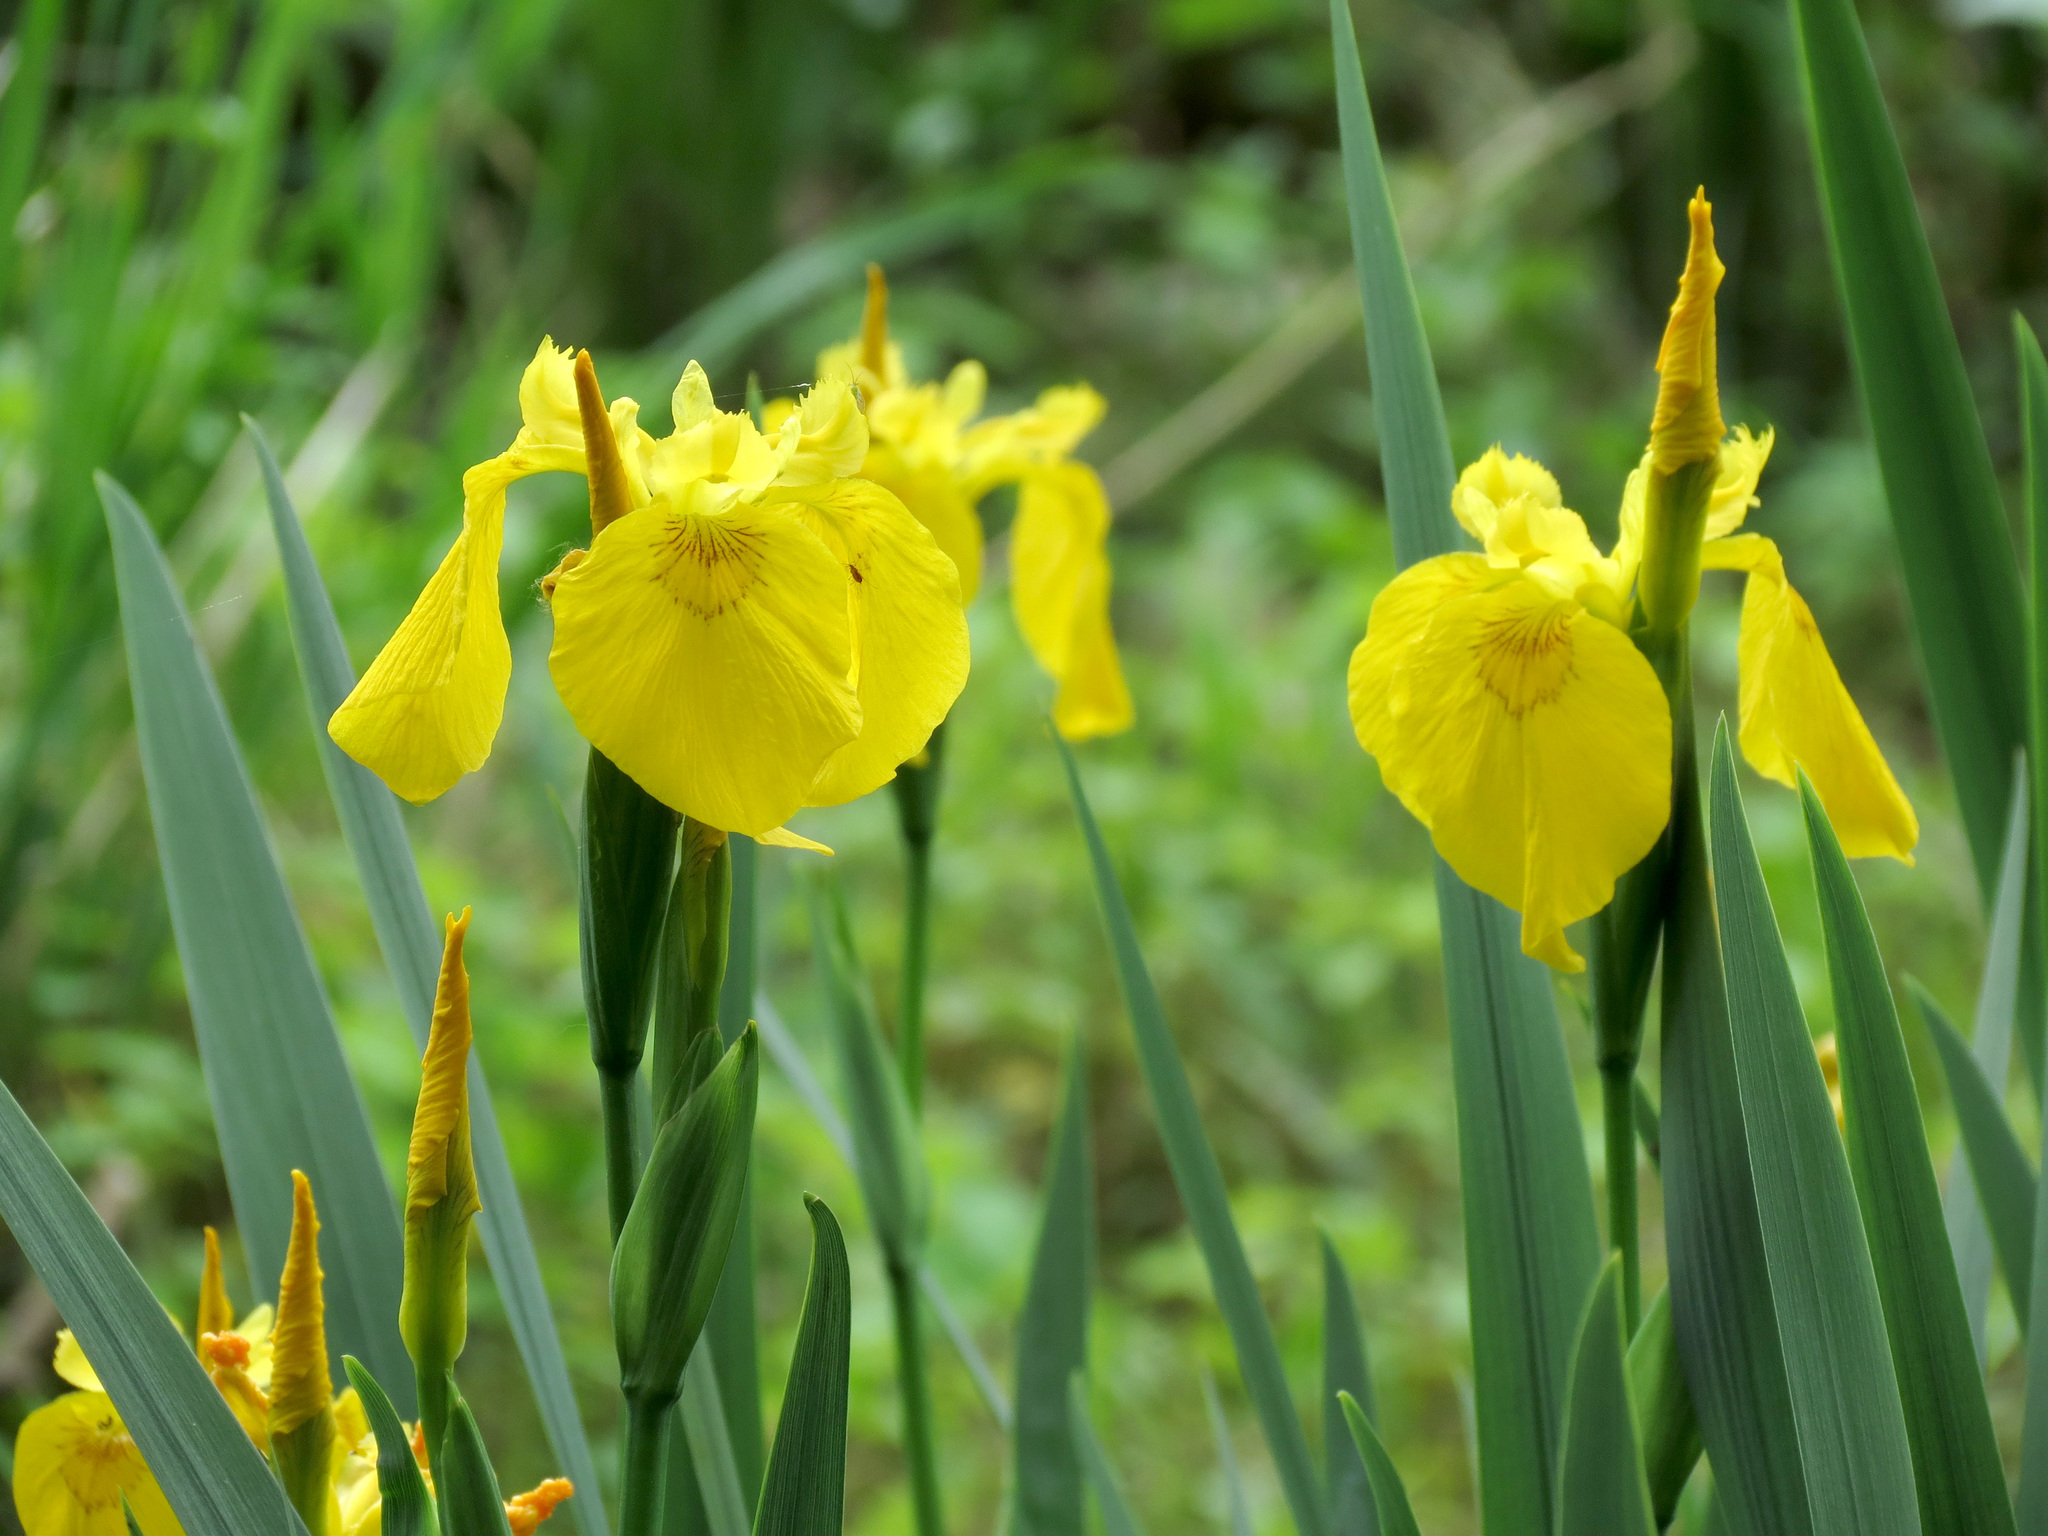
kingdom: Plantae
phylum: Tracheophyta
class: Liliopsida
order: Asparagales
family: Iridaceae
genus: Iris
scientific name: Iris pseudacorus
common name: Yellow flag
